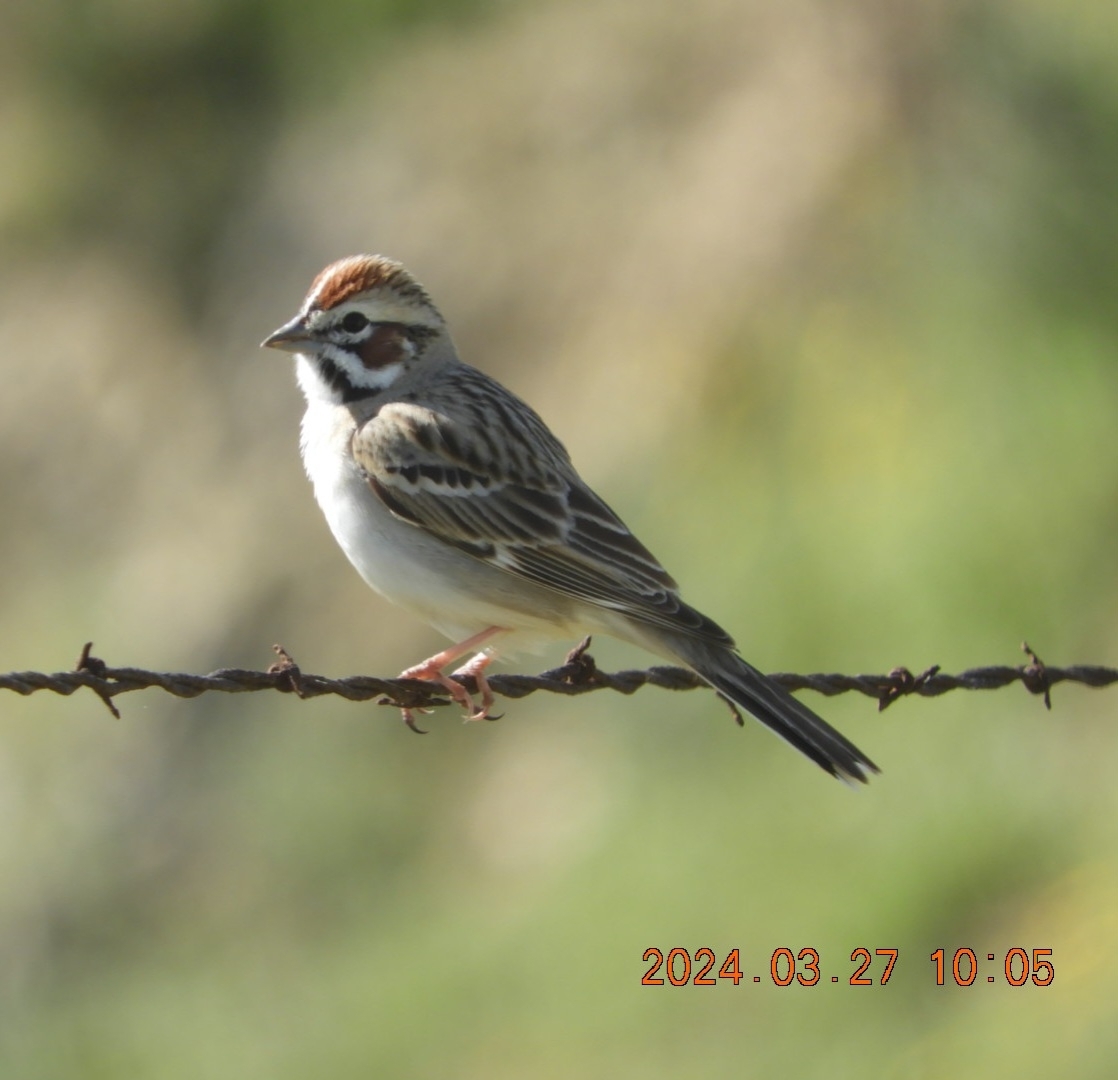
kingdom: Animalia
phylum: Chordata
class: Aves
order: Passeriformes
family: Passerellidae
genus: Chondestes
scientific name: Chondestes grammacus
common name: Lark sparrow
